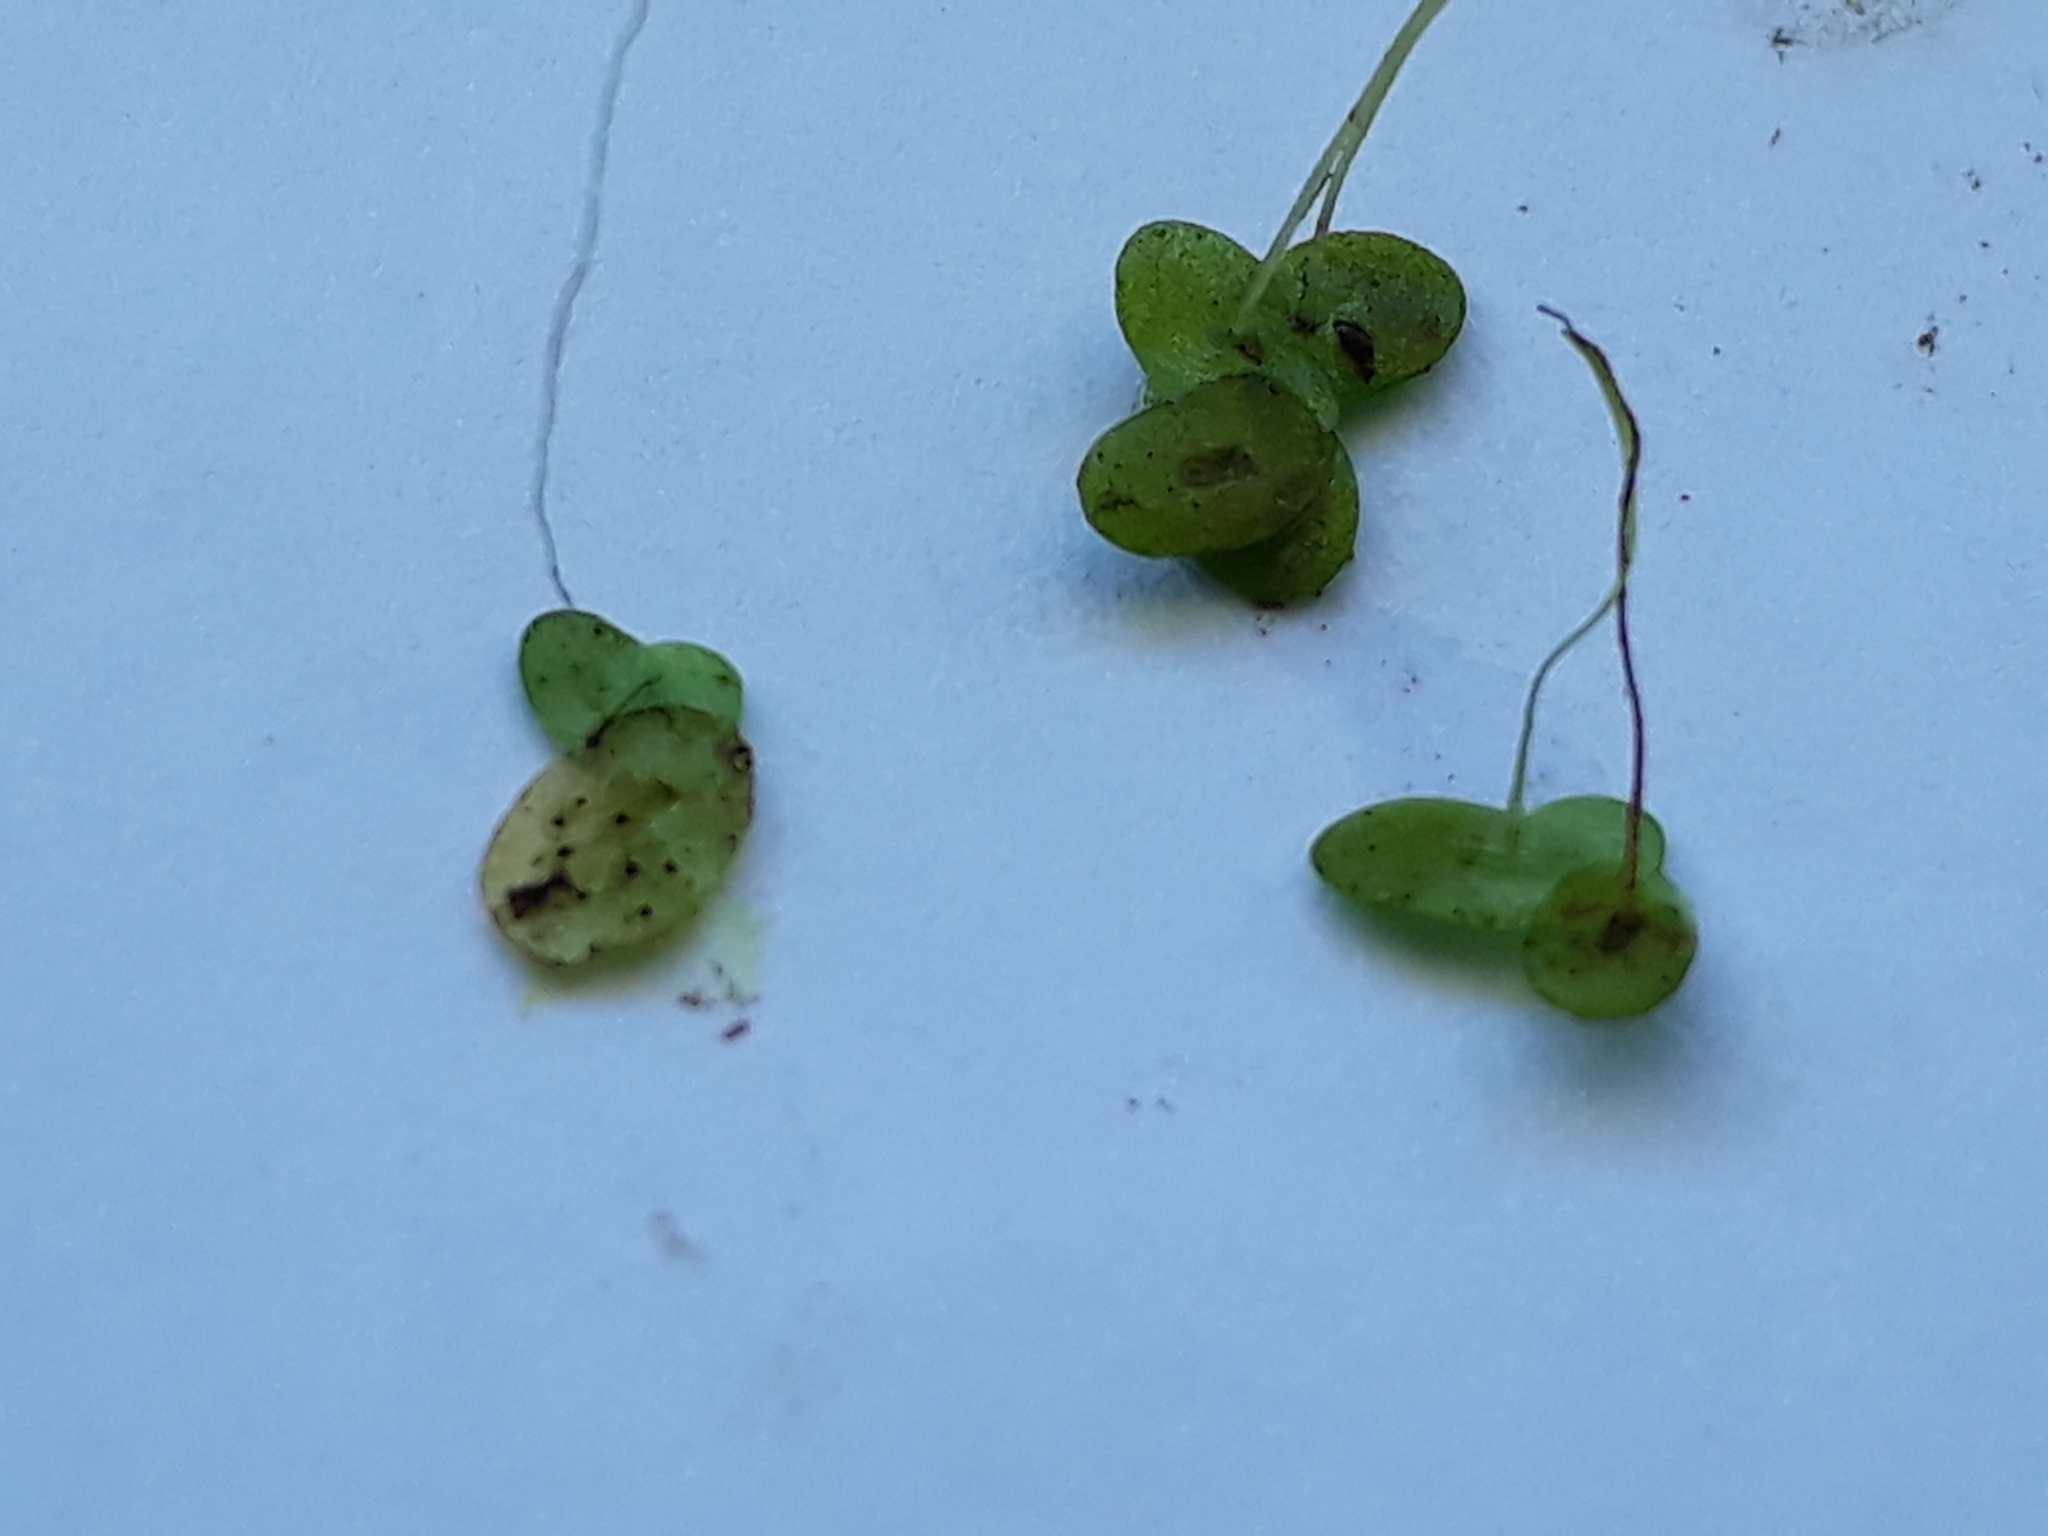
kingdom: Plantae
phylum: Tracheophyta
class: Liliopsida
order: Alismatales
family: Araceae
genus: Lemna
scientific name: Lemna disperma
